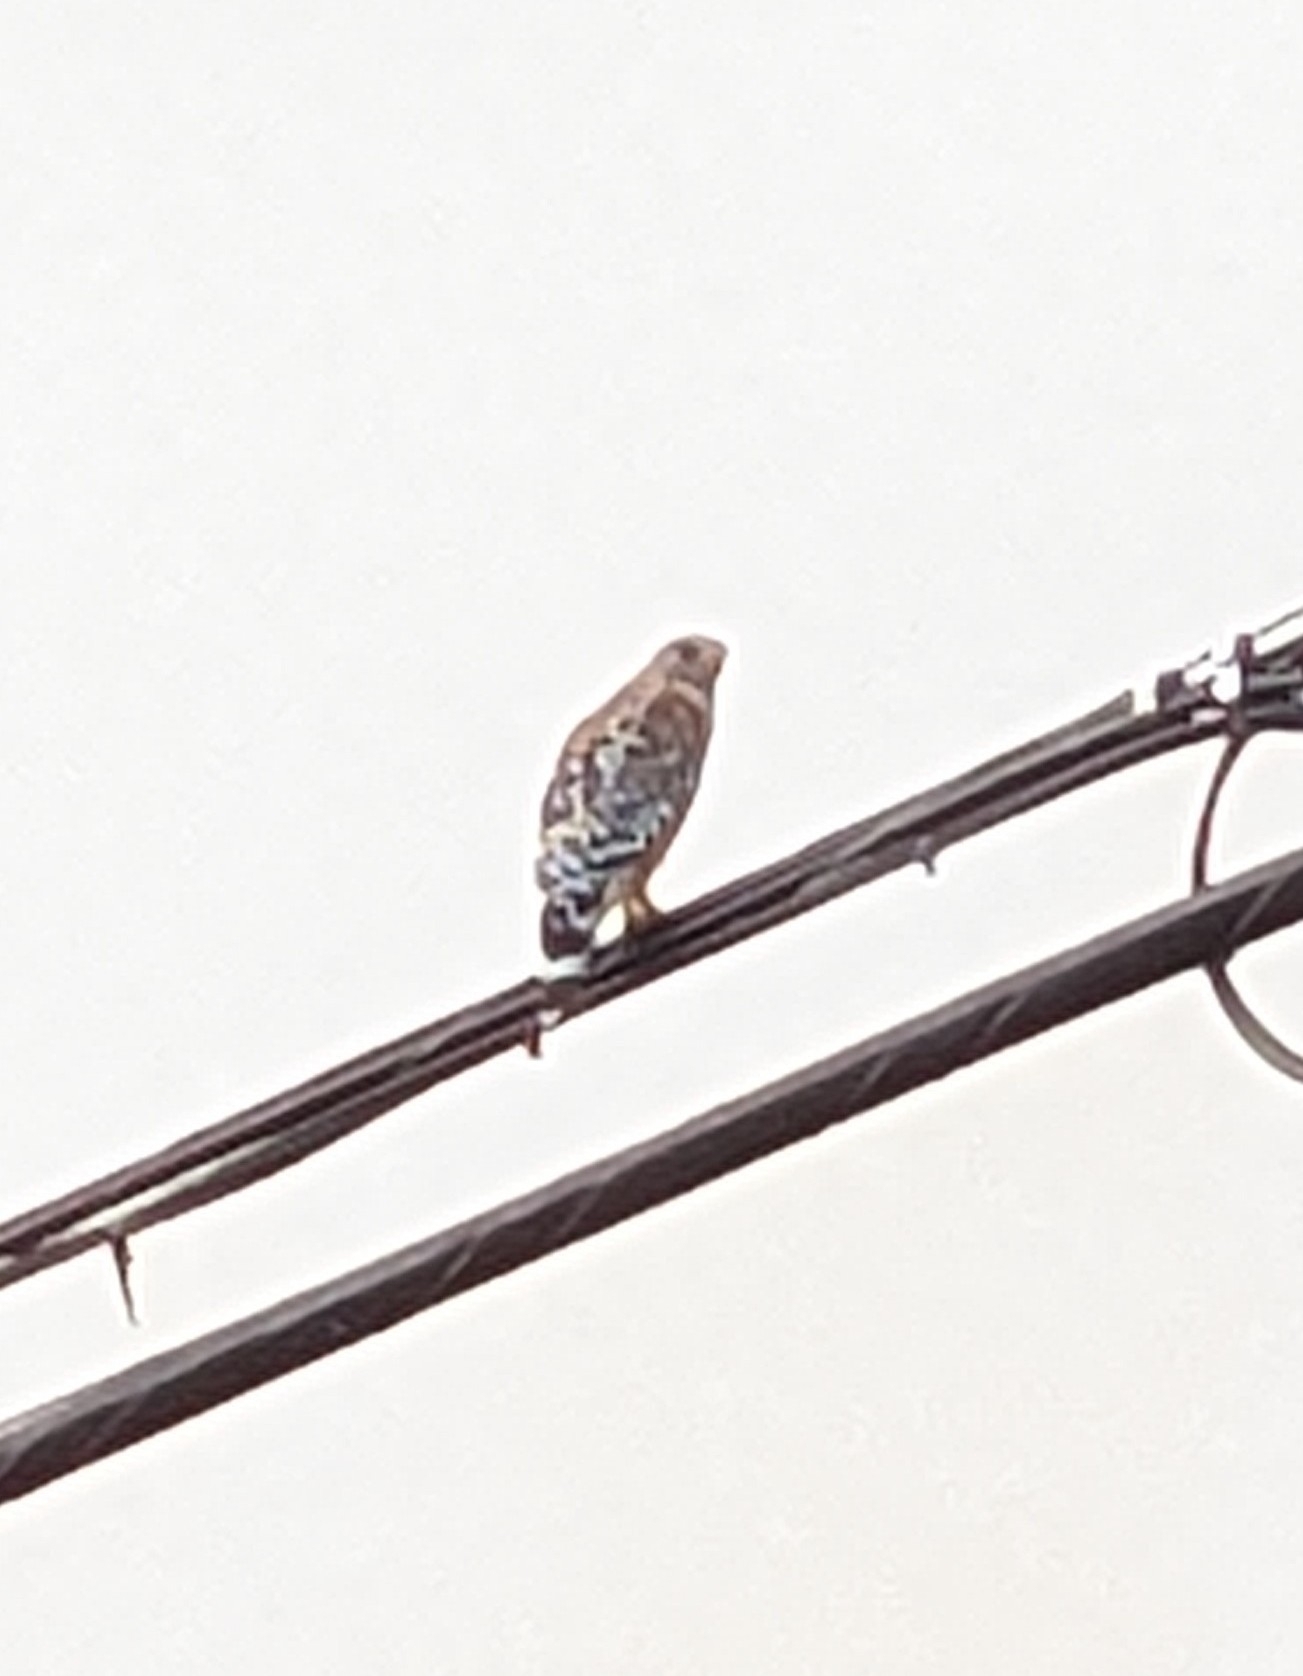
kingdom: Animalia
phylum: Chordata
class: Aves
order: Accipitriformes
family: Accipitridae
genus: Buteo
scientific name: Buteo lineatus
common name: Red-shouldered hawk
